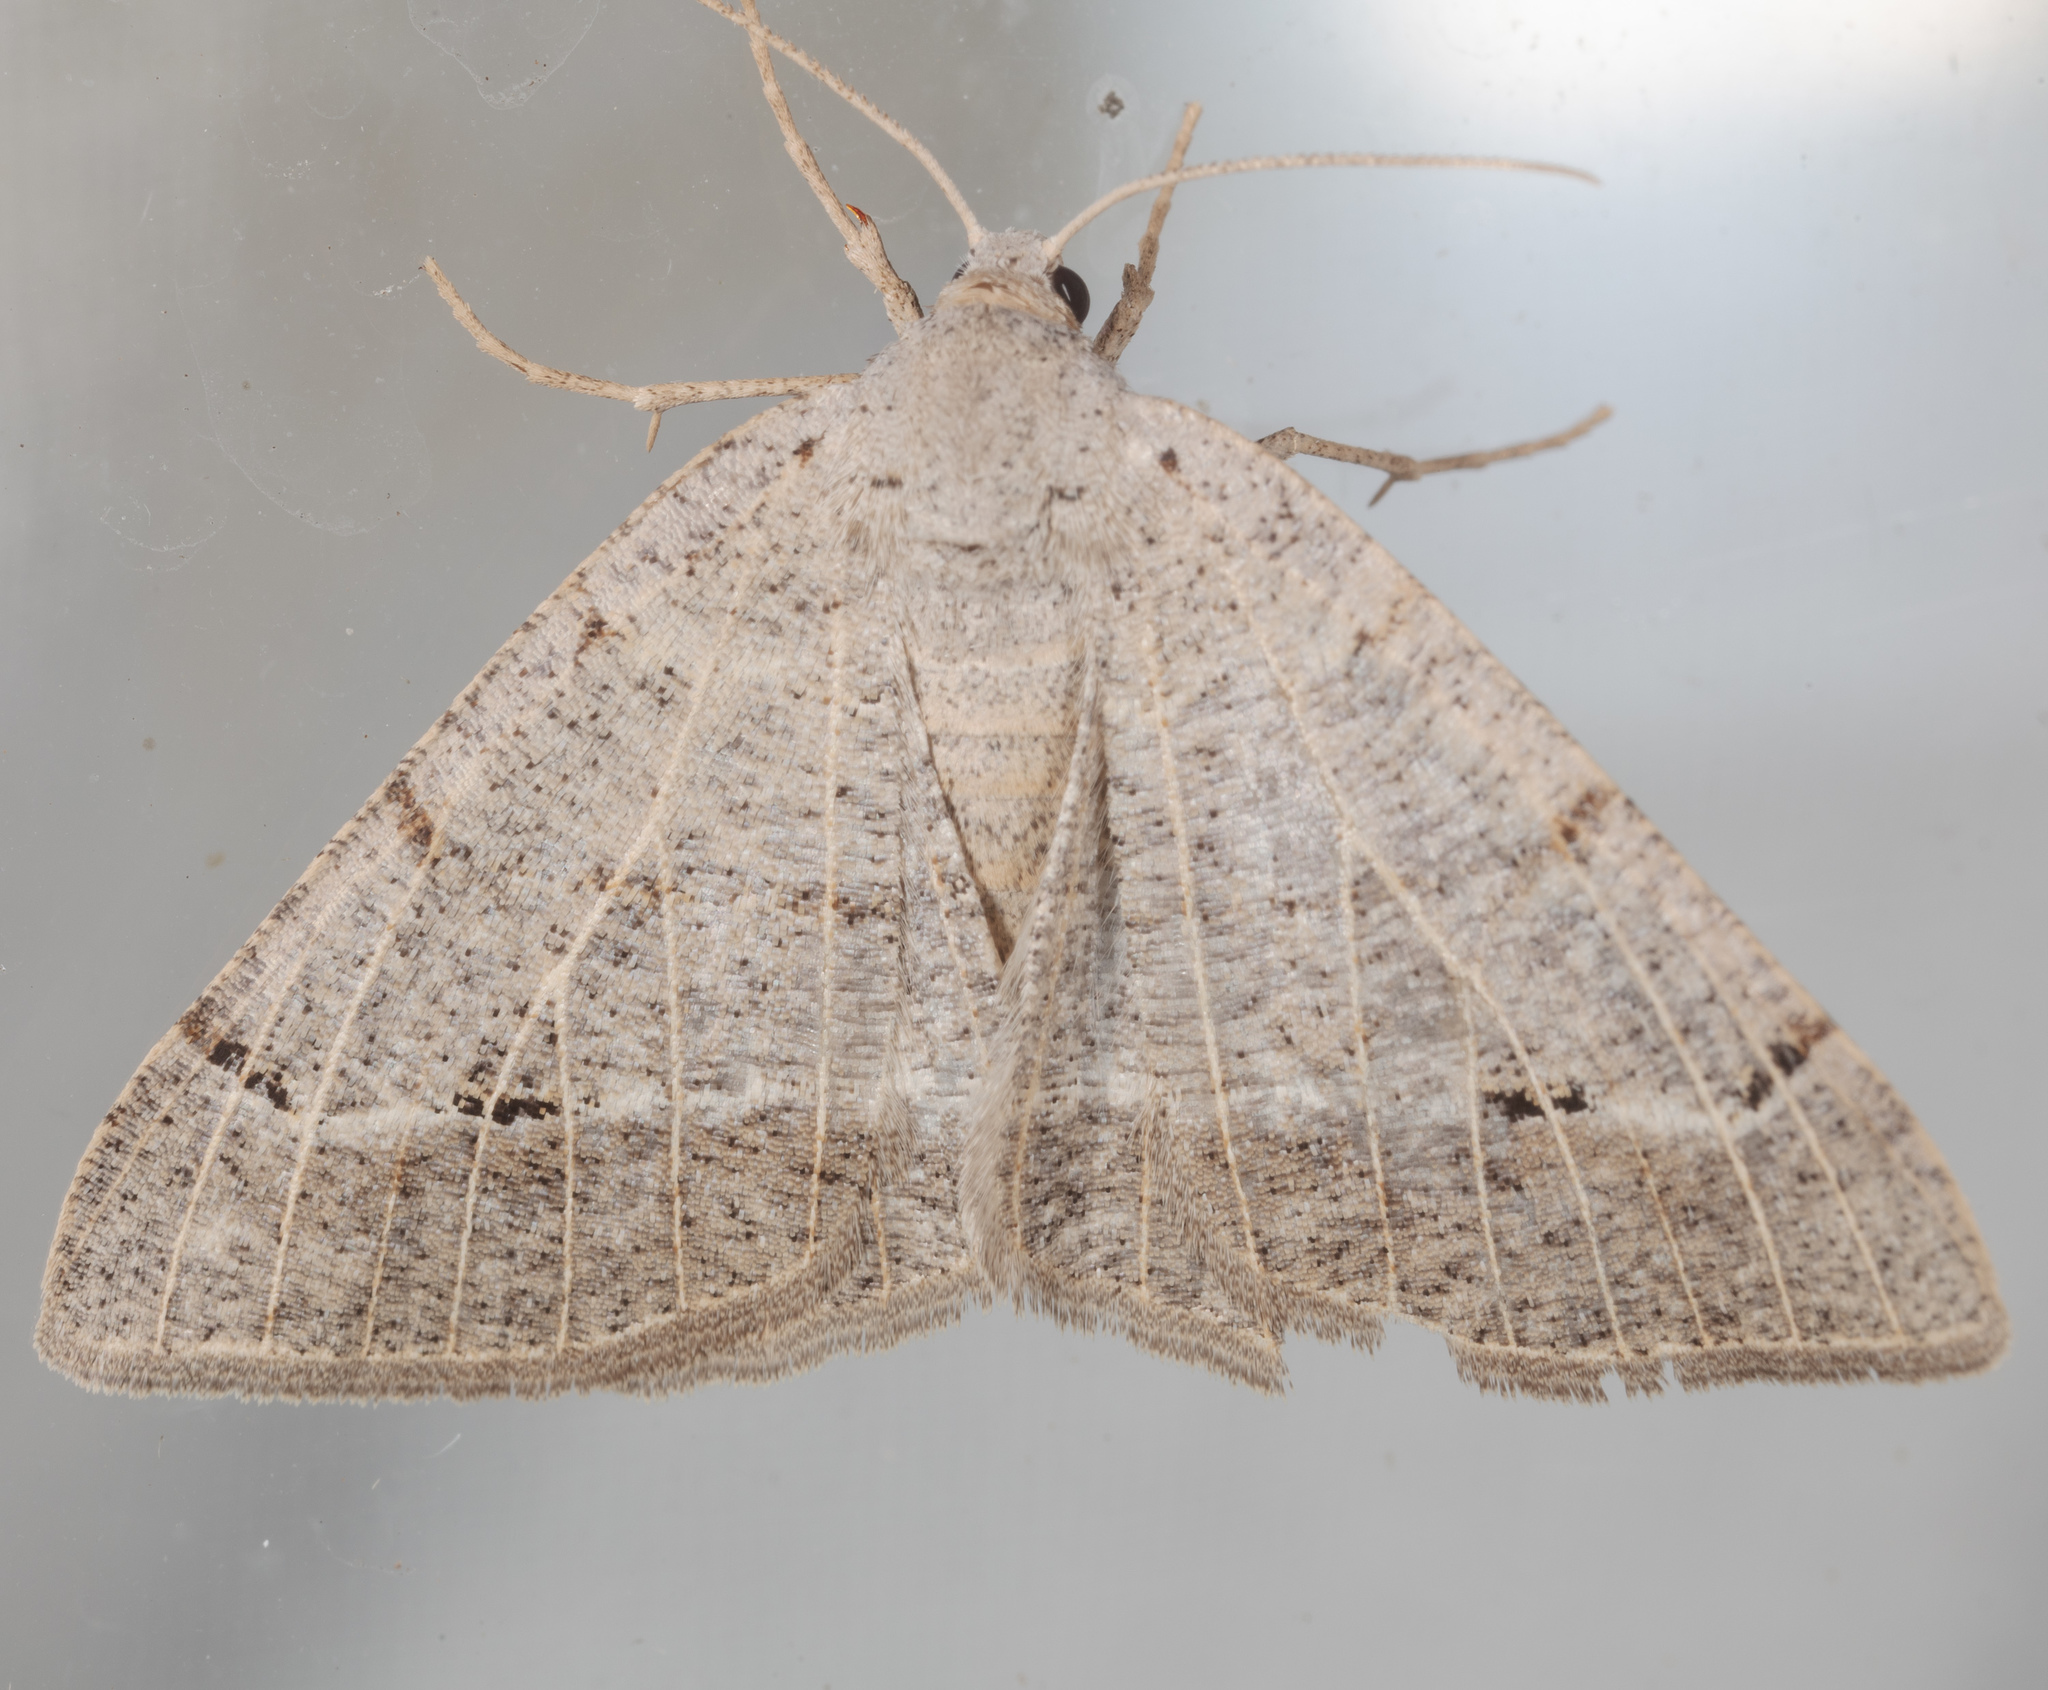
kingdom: Animalia
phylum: Arthropoda
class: Insecta
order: Lepidoptera
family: Geometridae
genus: Isturgia
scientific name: Isturgia dislocaria
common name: Pale-viened enconista
